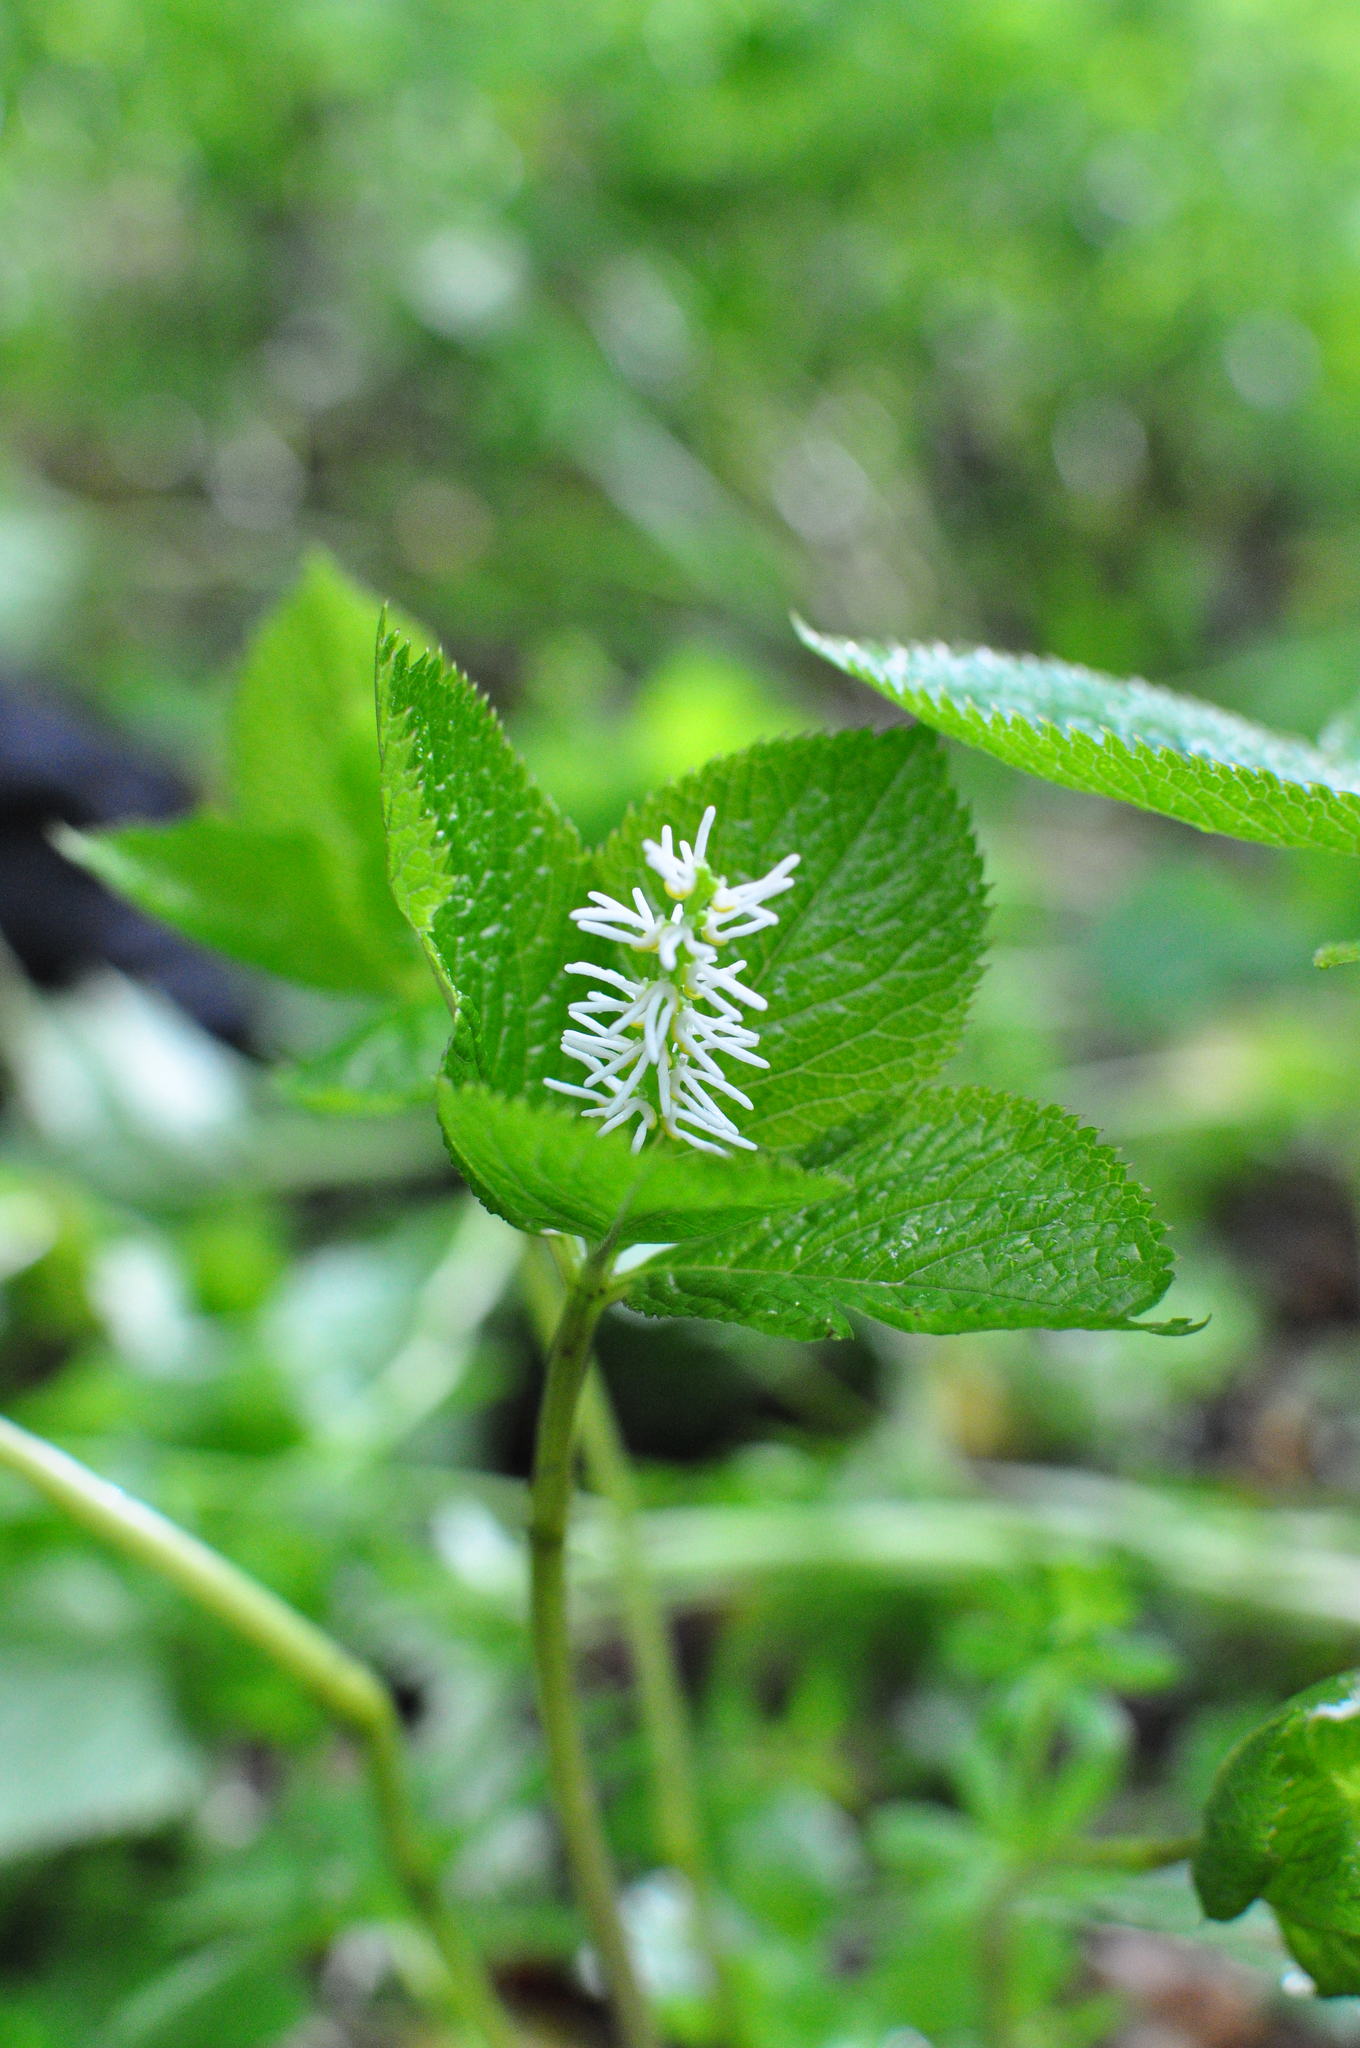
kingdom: Plantae
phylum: Tracheophyta
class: Magnoliopsida
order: Chloranthales
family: Chloranthaceae
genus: Chloranthus
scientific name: Chloranthus quadrifolius
